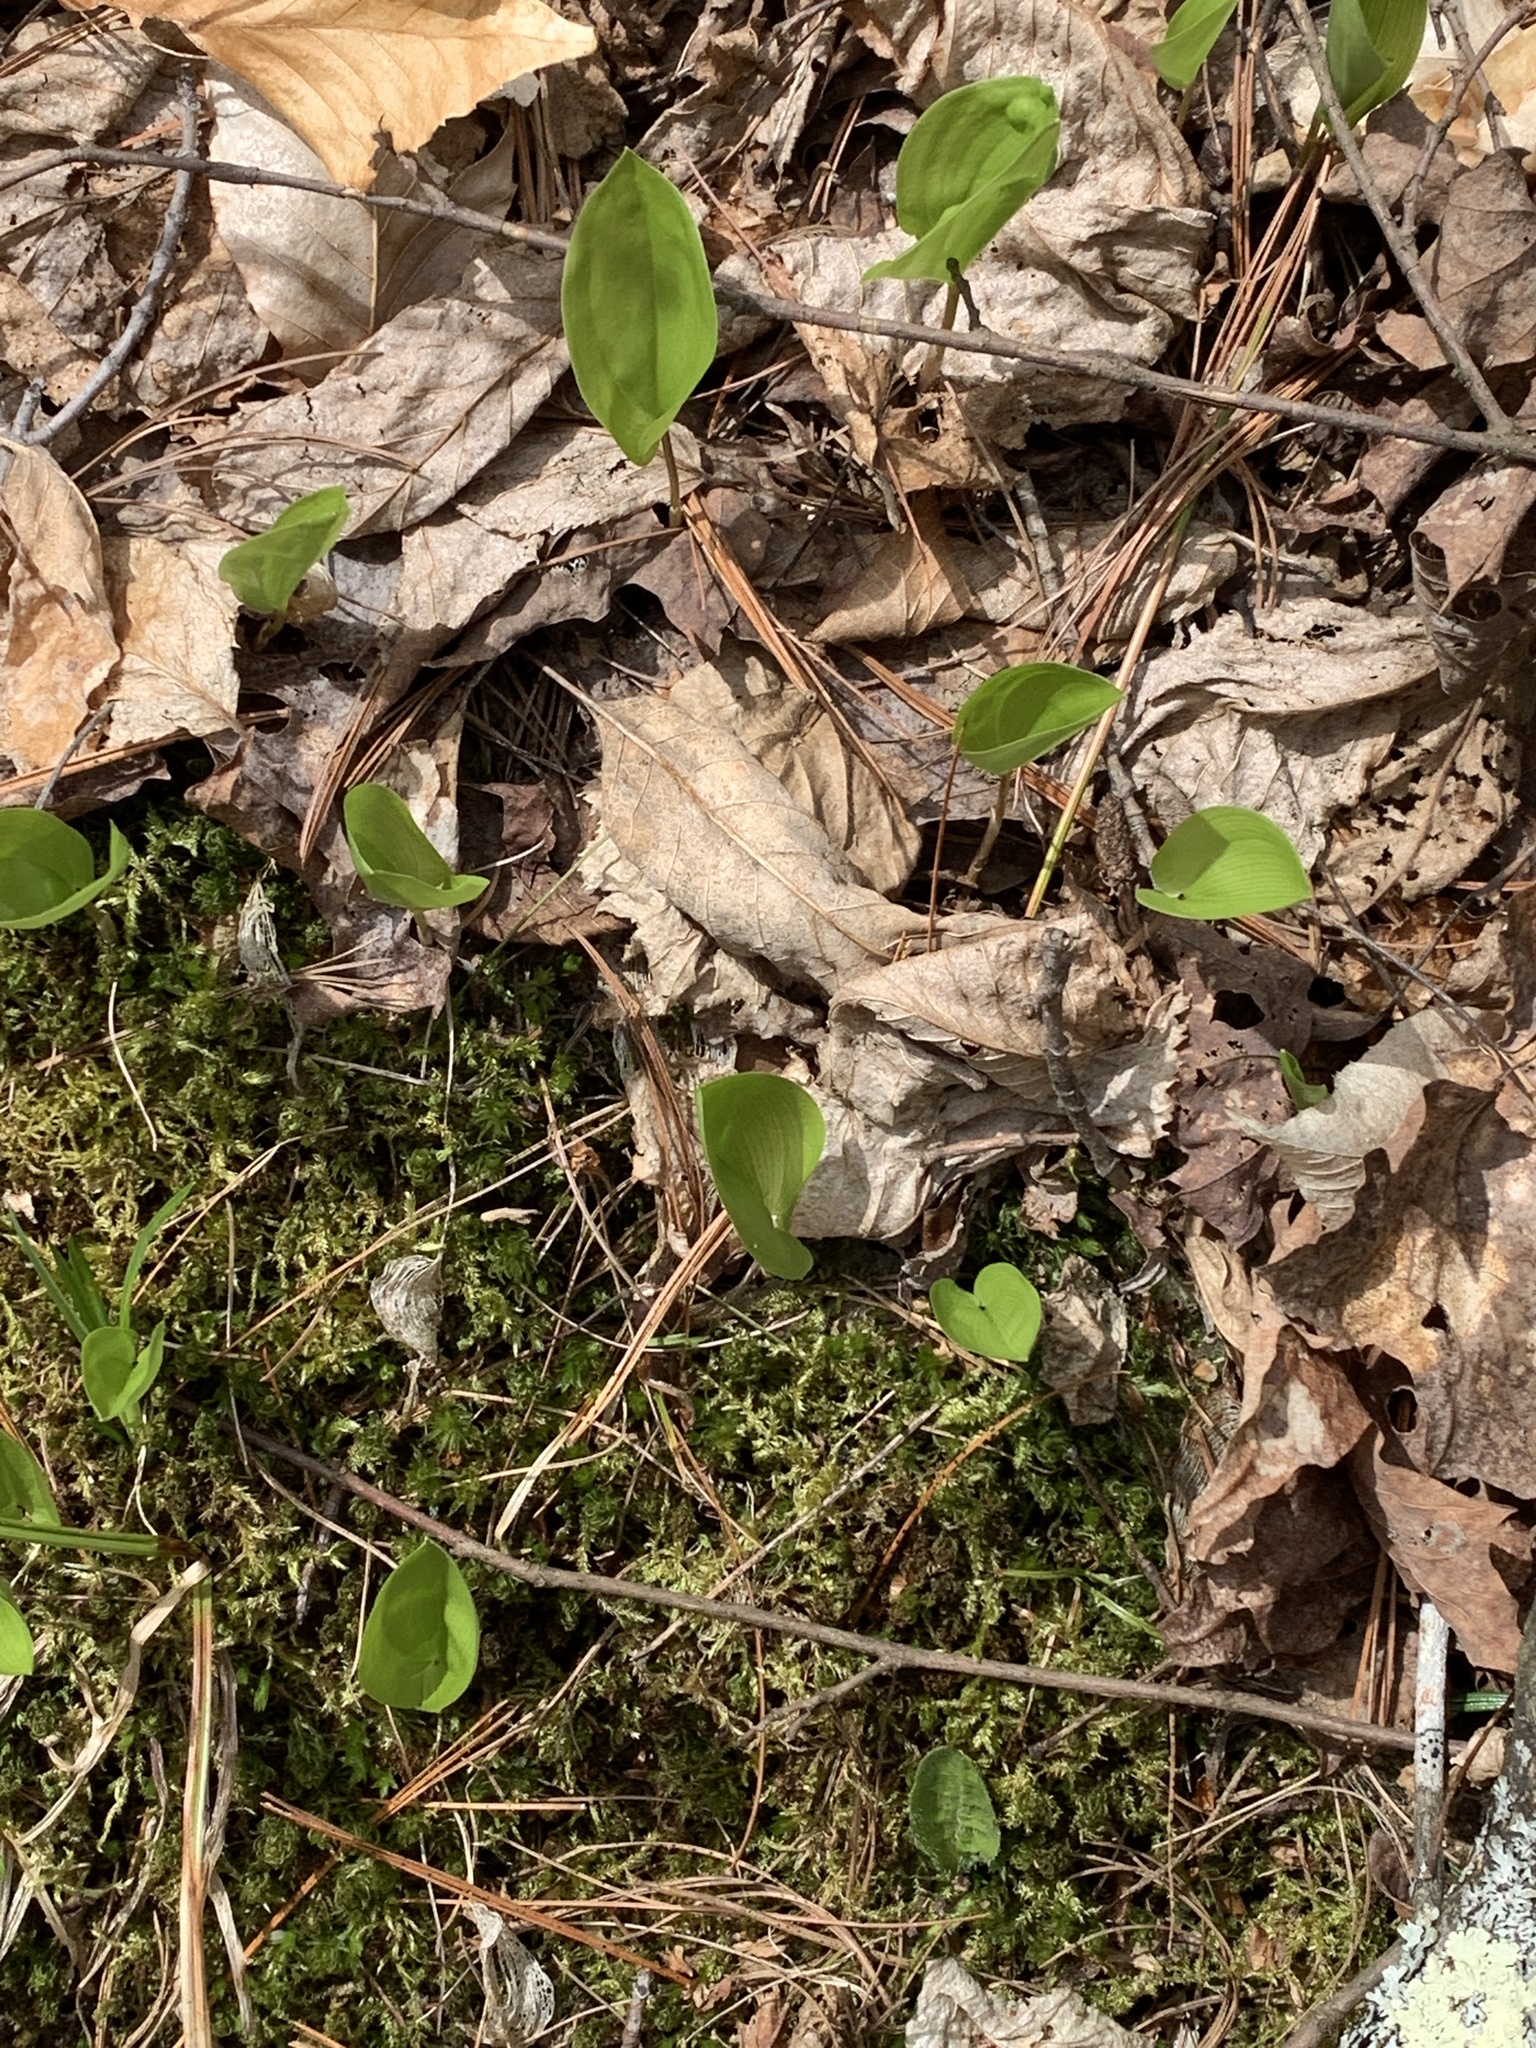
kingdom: Plantae
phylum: Tracheophyta
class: Liliopsida
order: Asparagales
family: Asparagaceae
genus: Maianthemum
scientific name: Maianthemum canadense
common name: False lily-of-the-valley
